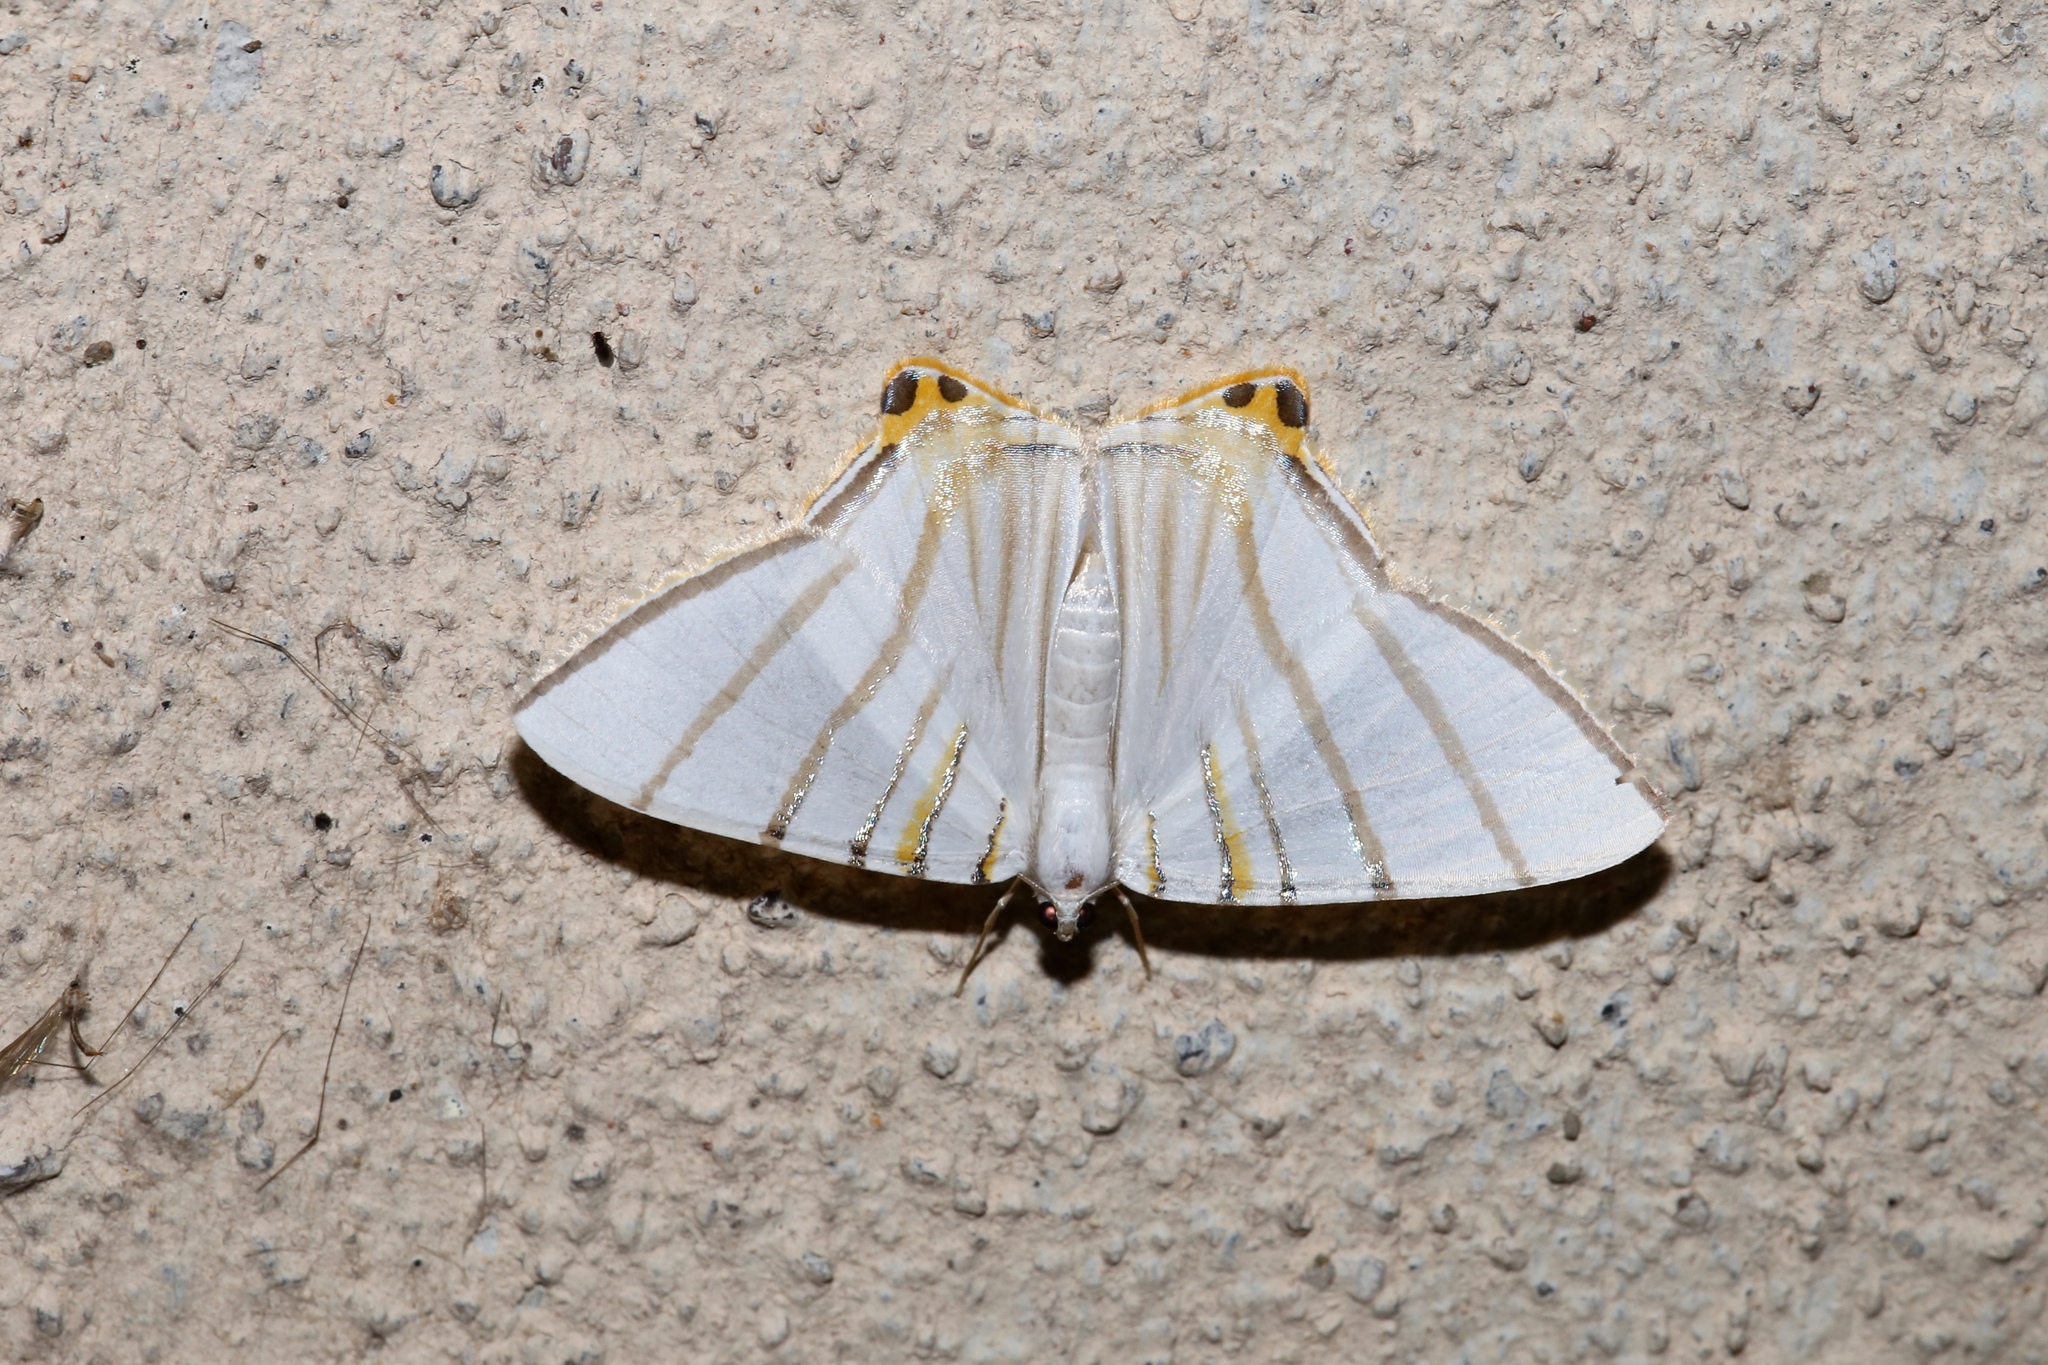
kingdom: Animalia
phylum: Arthropoda
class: Insecta
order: Lepidoptera
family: Geometridae
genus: Phrygionis
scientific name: Phrygionis platinata
